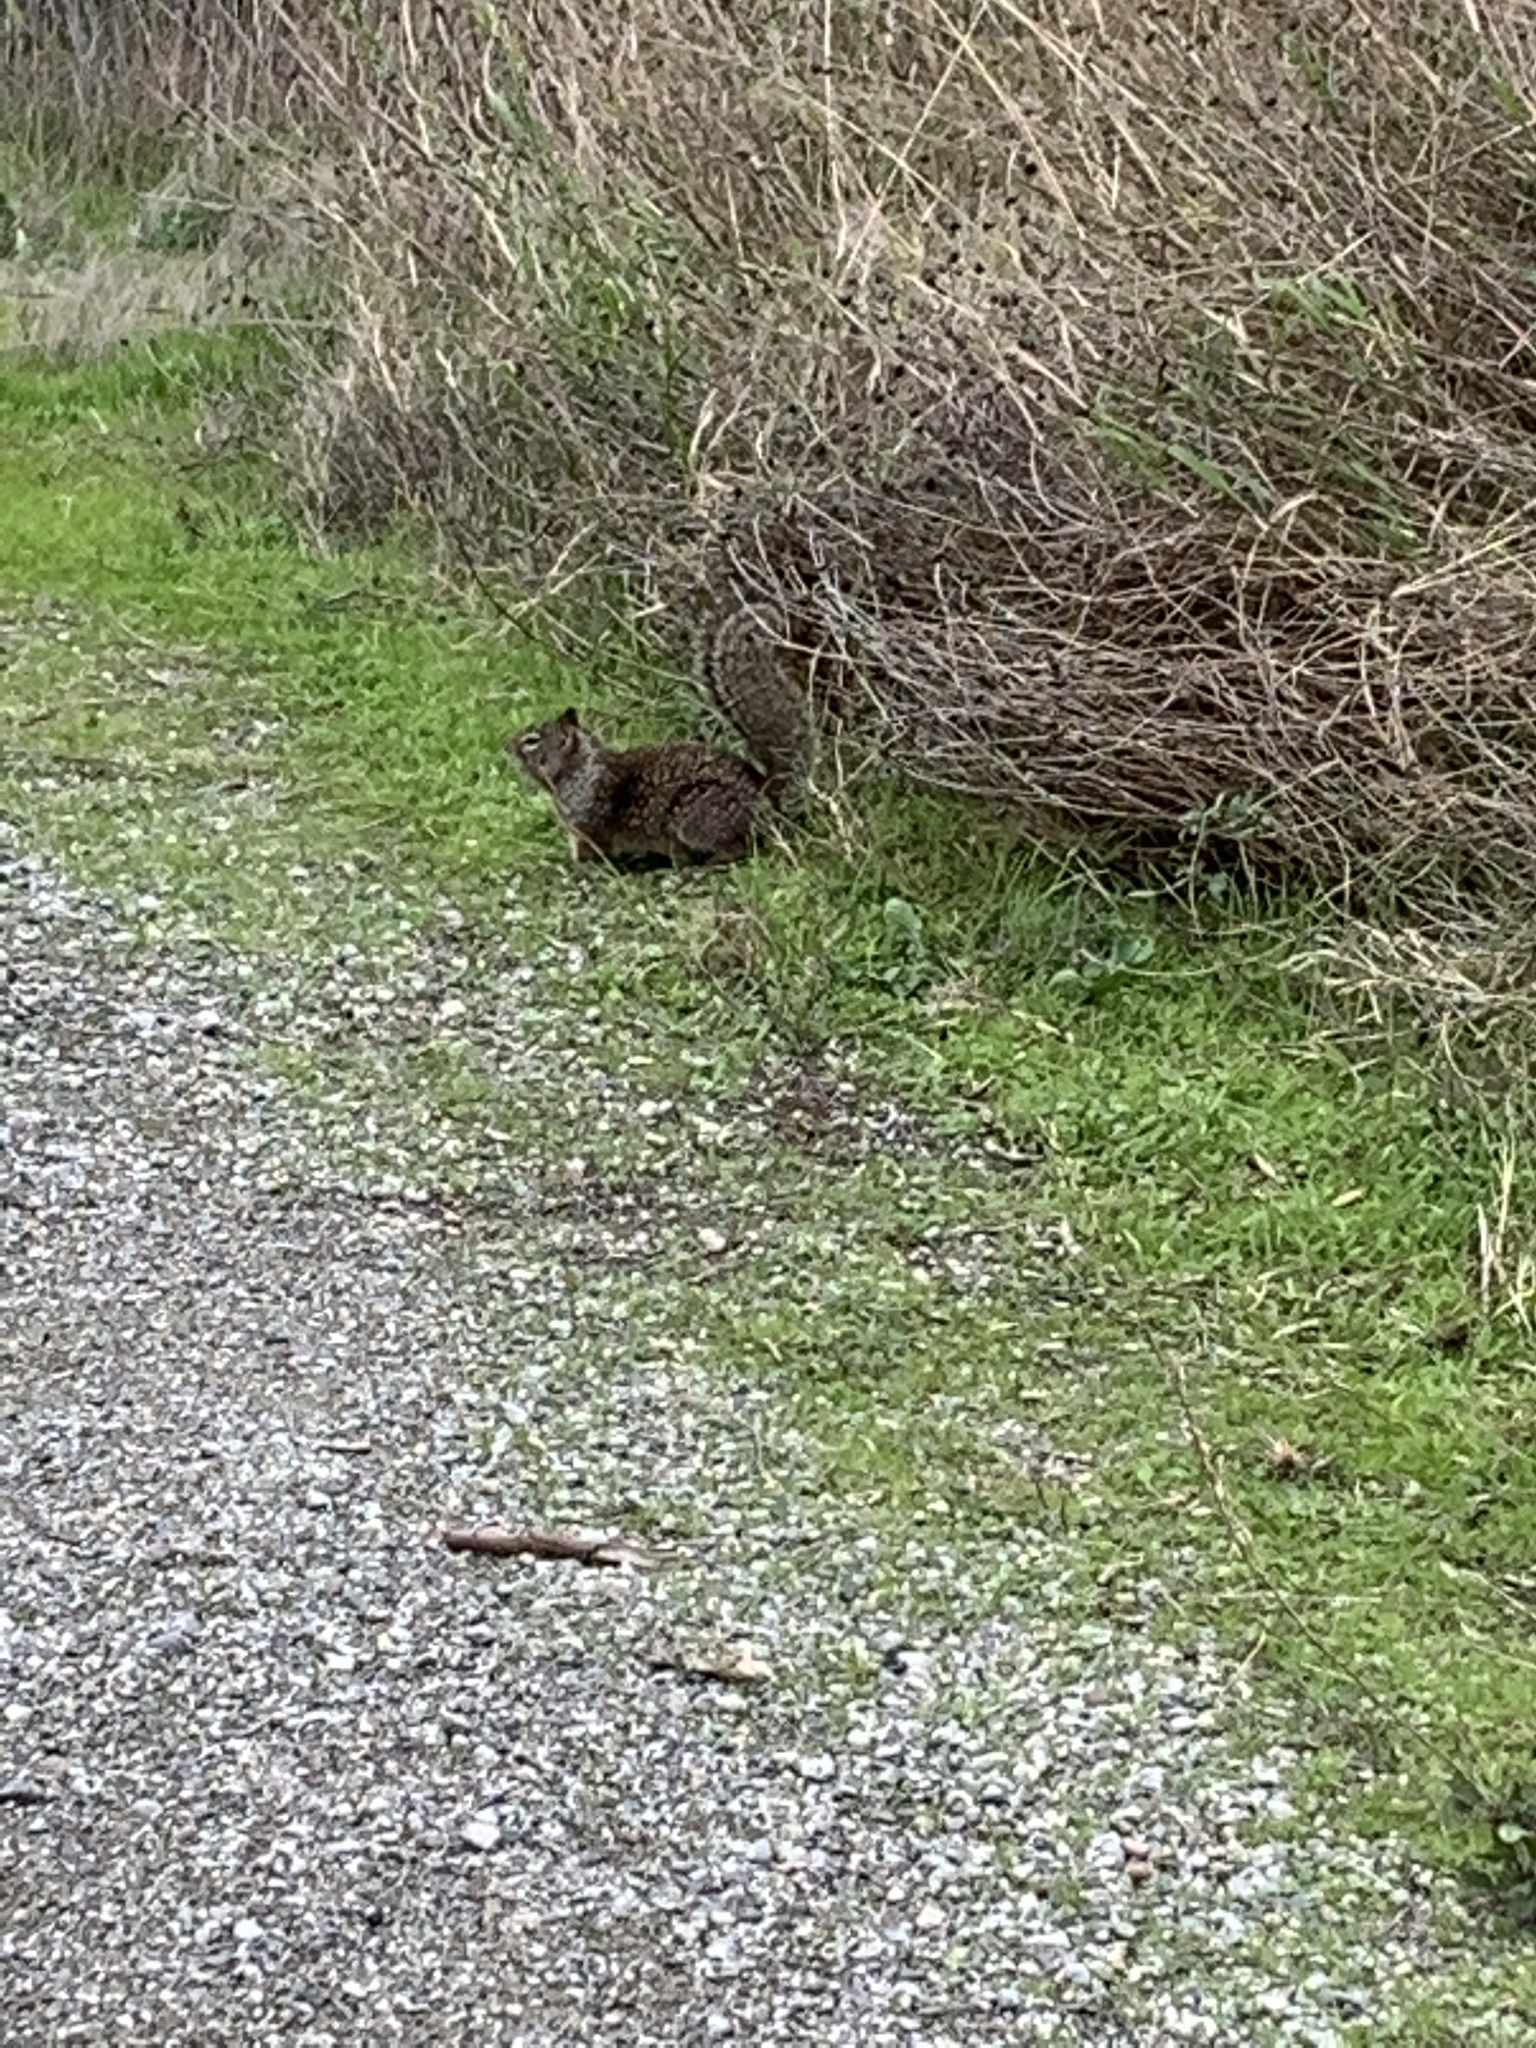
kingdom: Animalia
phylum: Chordata
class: Mammalia
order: Rodentia
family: Sciuridae
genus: Otospermophilus
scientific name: Otospermophilus beecheyi
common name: California ground squirrel
